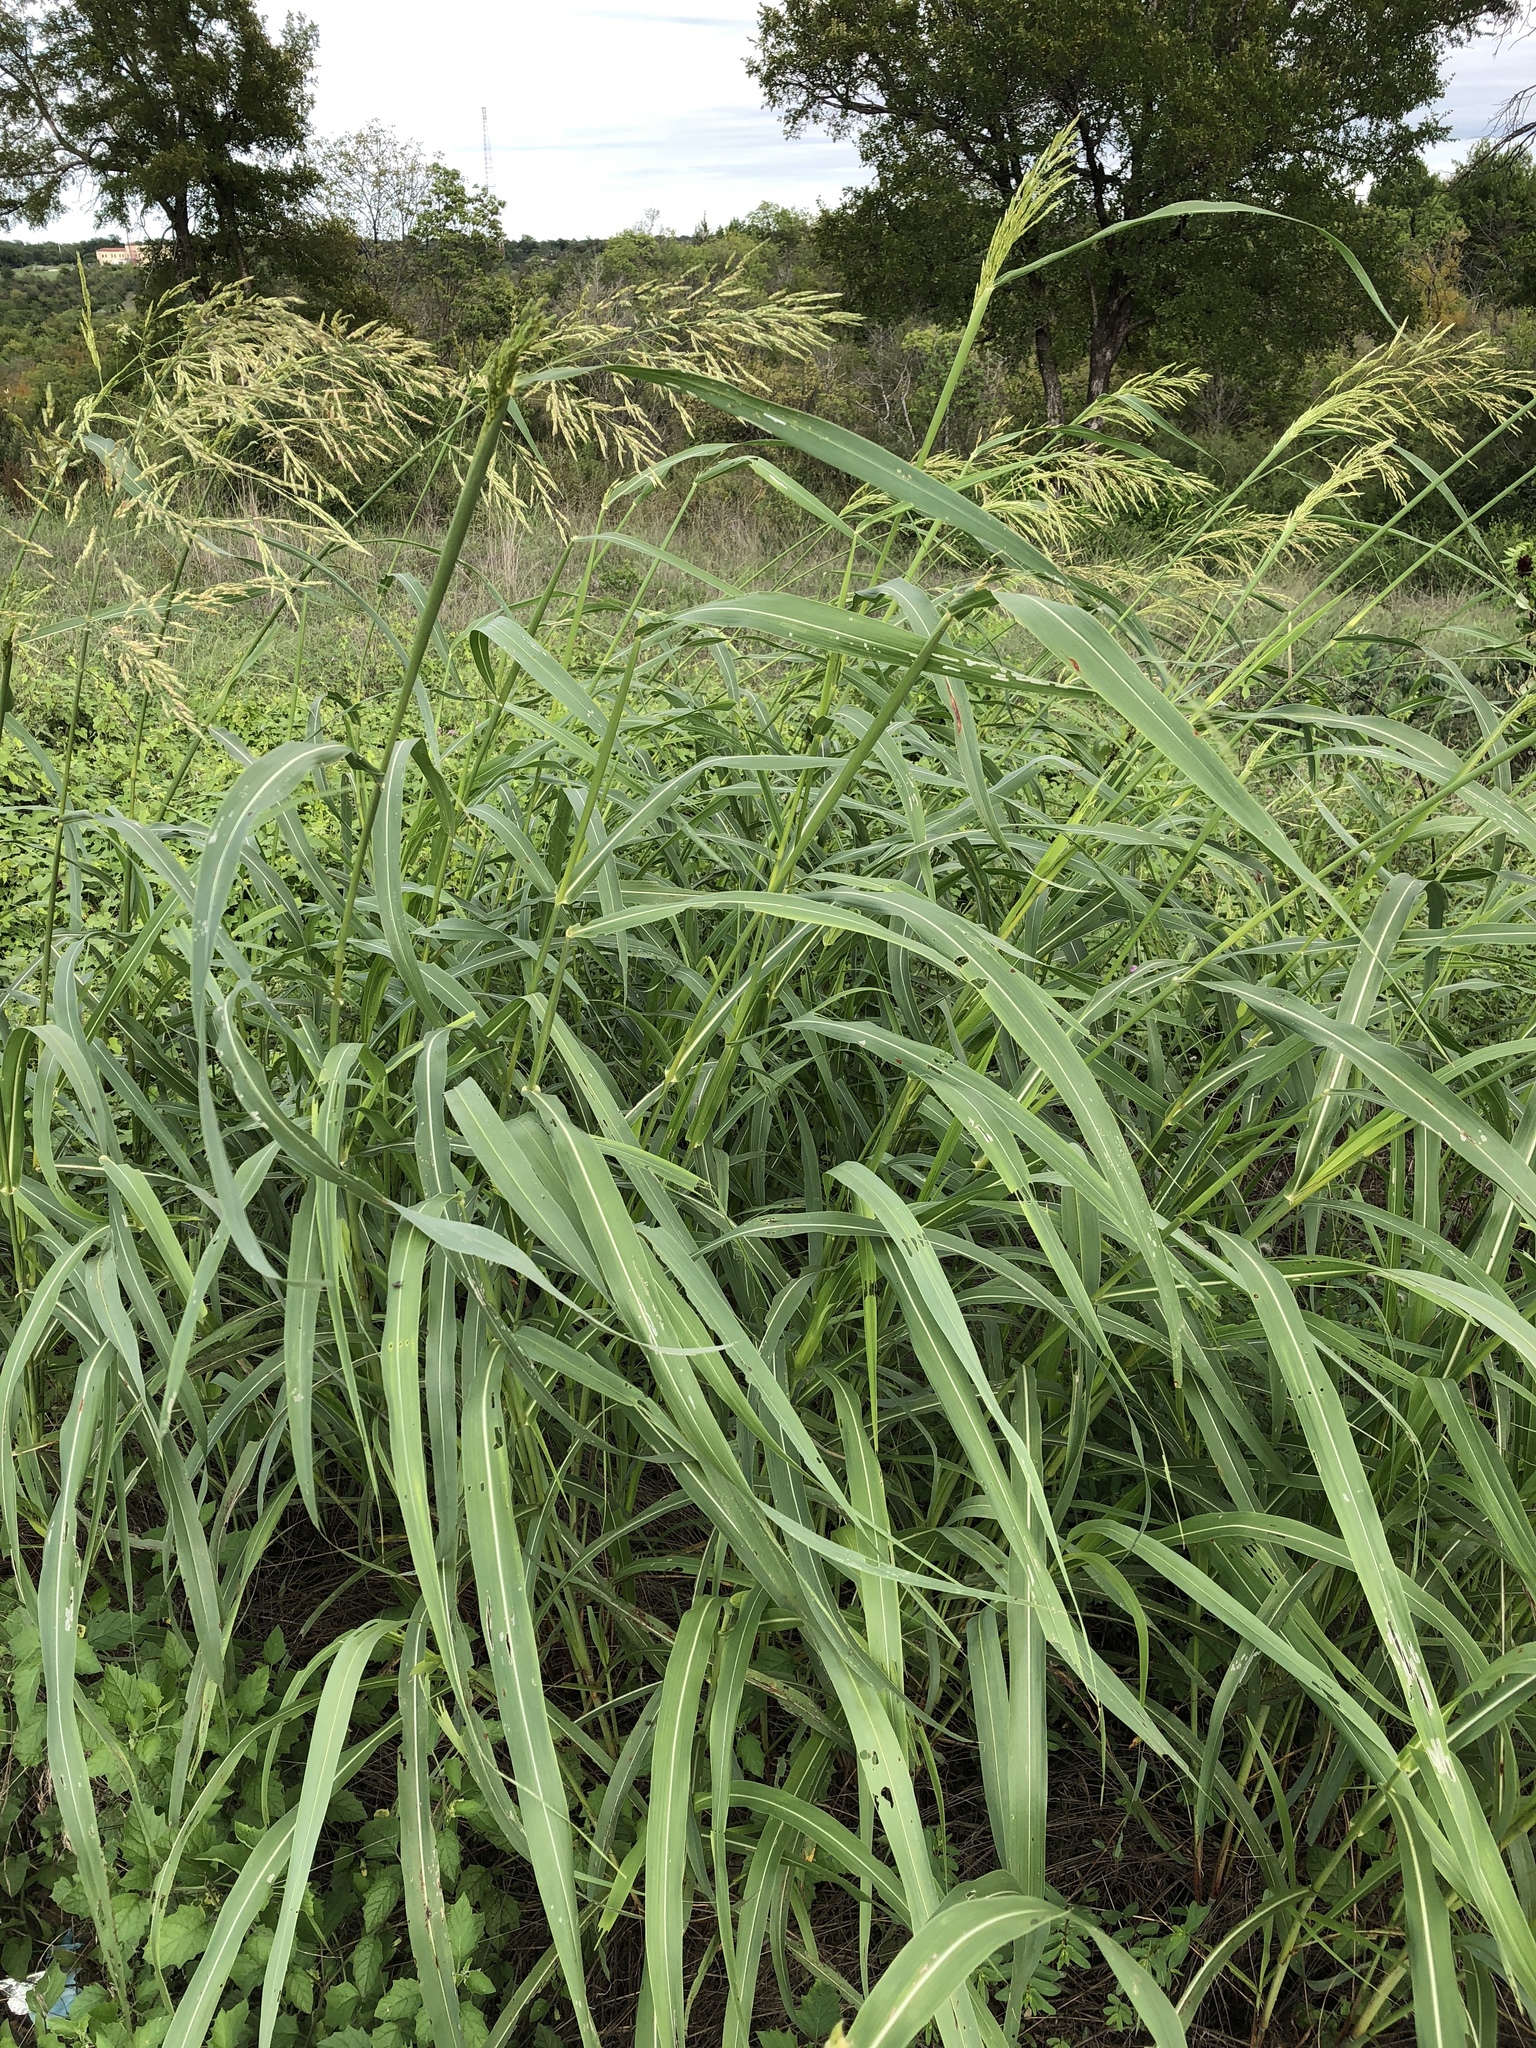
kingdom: Plantae
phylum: Tracheophyta
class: Liliopsida
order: Poales
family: Poaceae
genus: Sorghum
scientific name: Sorghum halepense
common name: Johnson-grass
